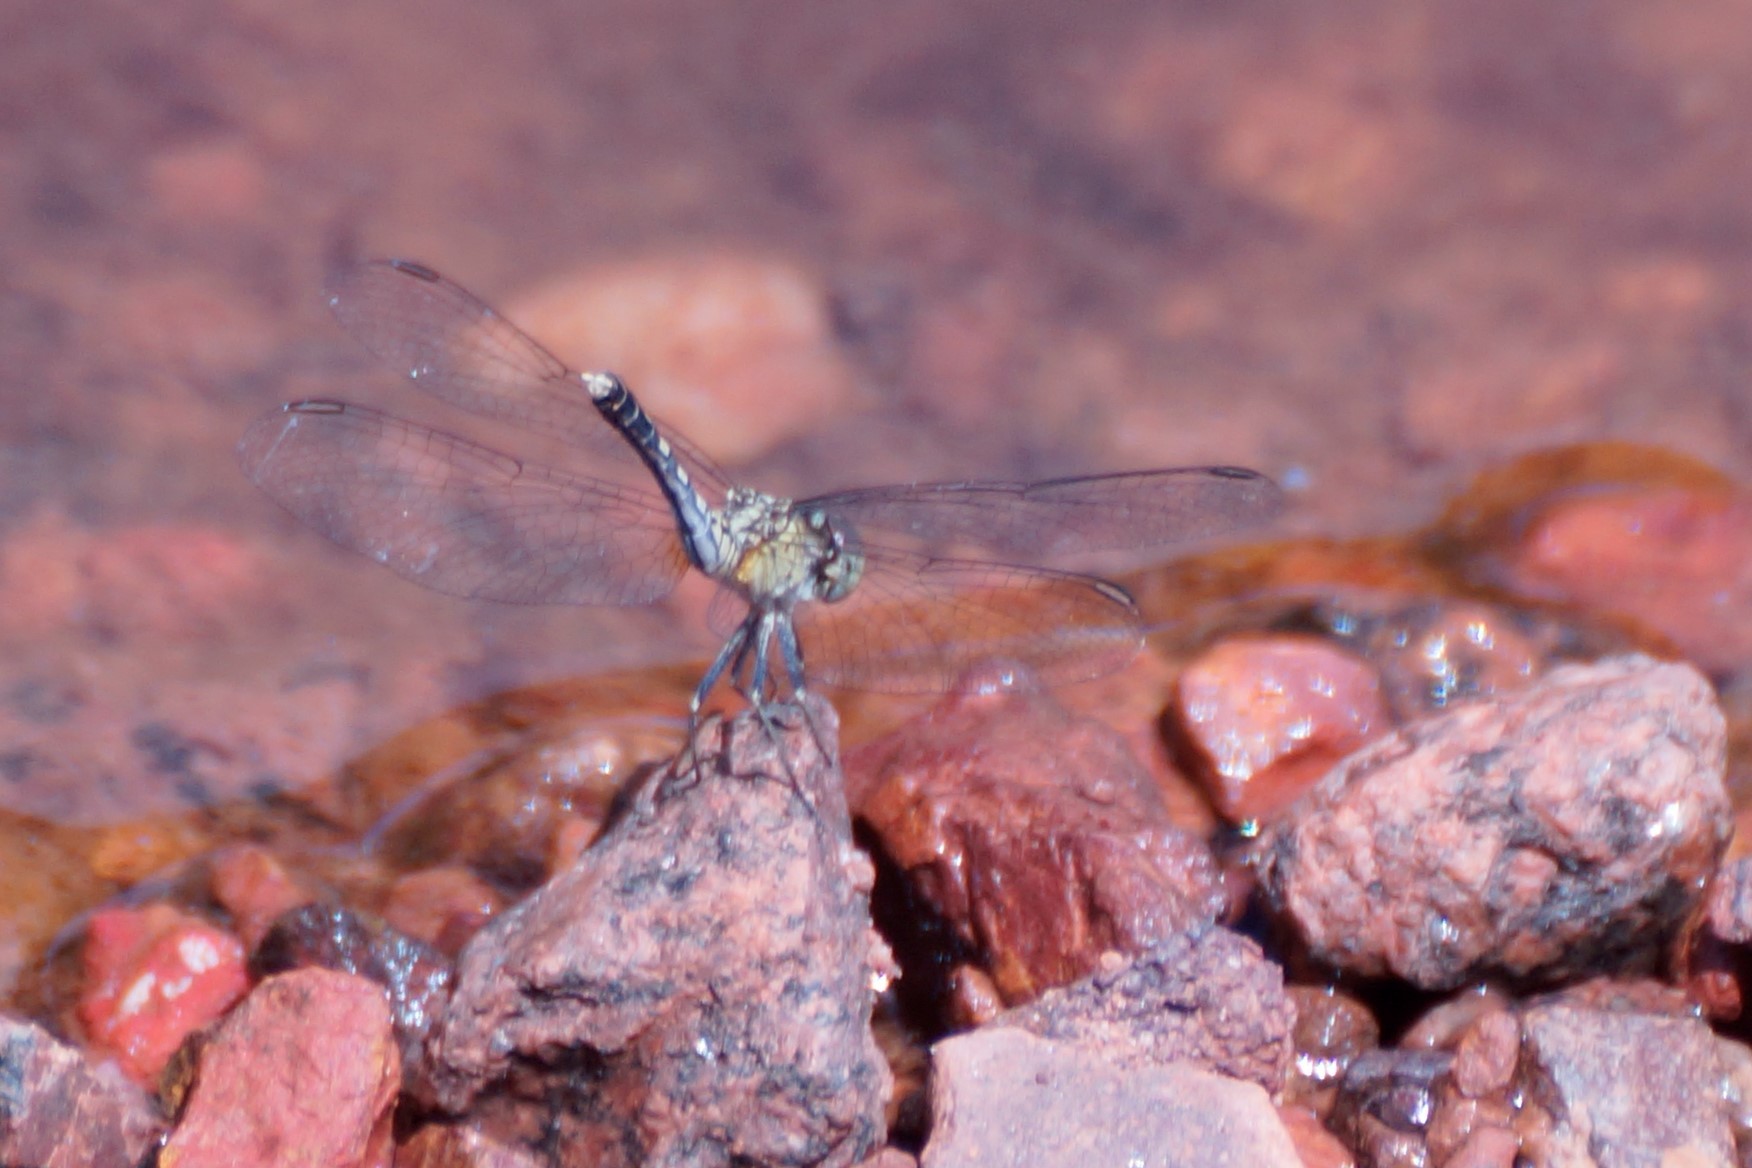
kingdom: Animalia
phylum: Arthropoda
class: Insecta
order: Odonata
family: Libellulidae
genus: Diplacodes
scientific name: Diplacodes trivialis
